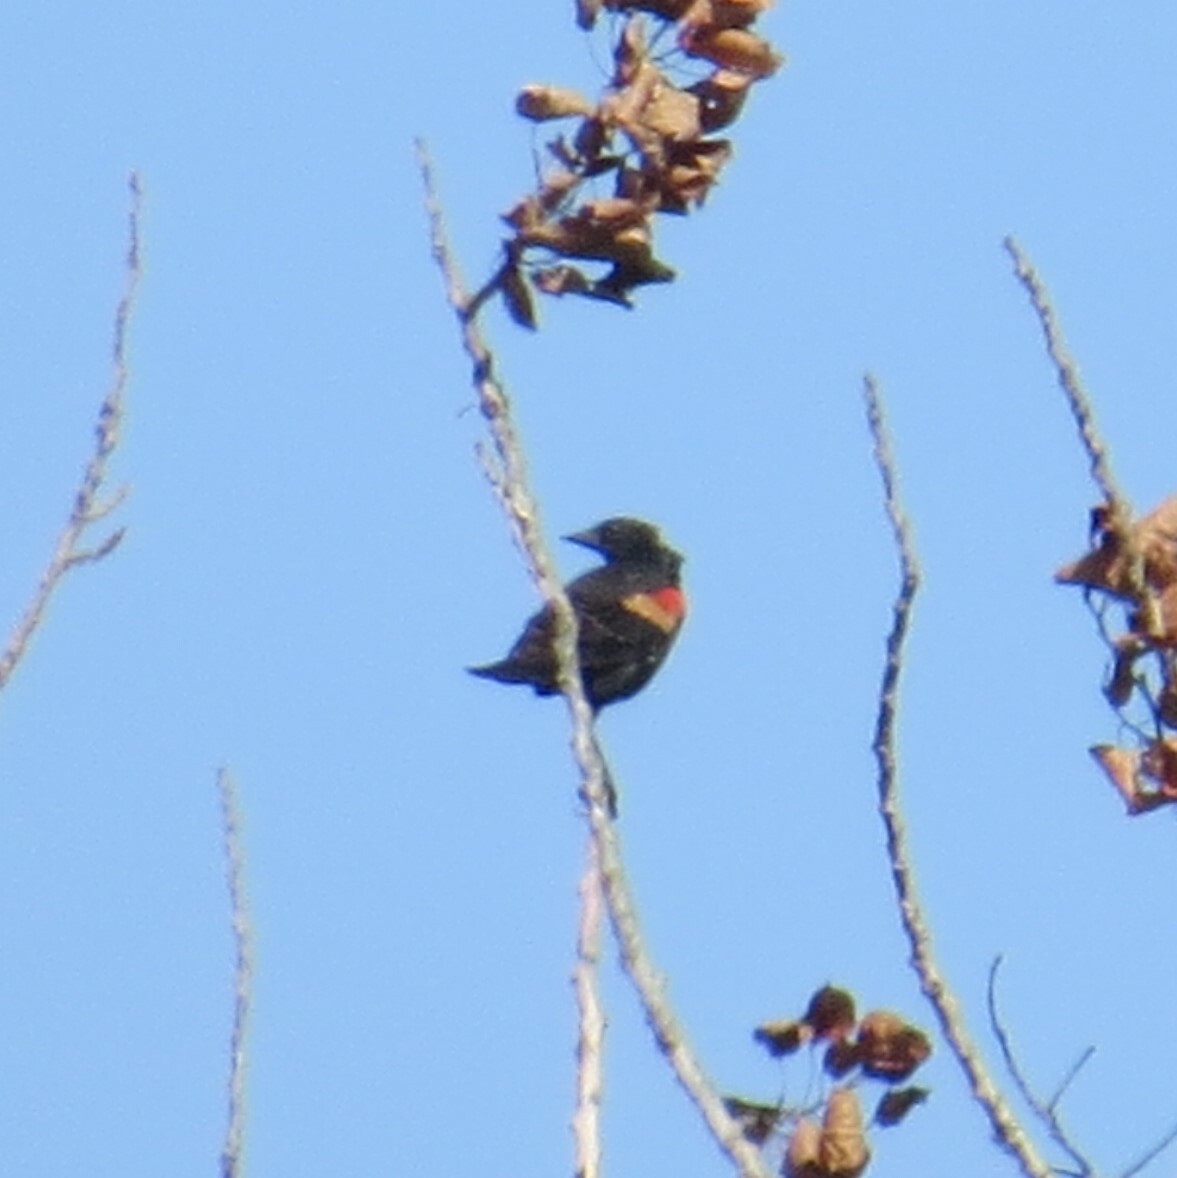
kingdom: Animalia
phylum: Chordata
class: Aves
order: Passeriformes
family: Icteridae
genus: Agelaius
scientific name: Agelaius phoeniceus
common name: Red-winged blackbird
